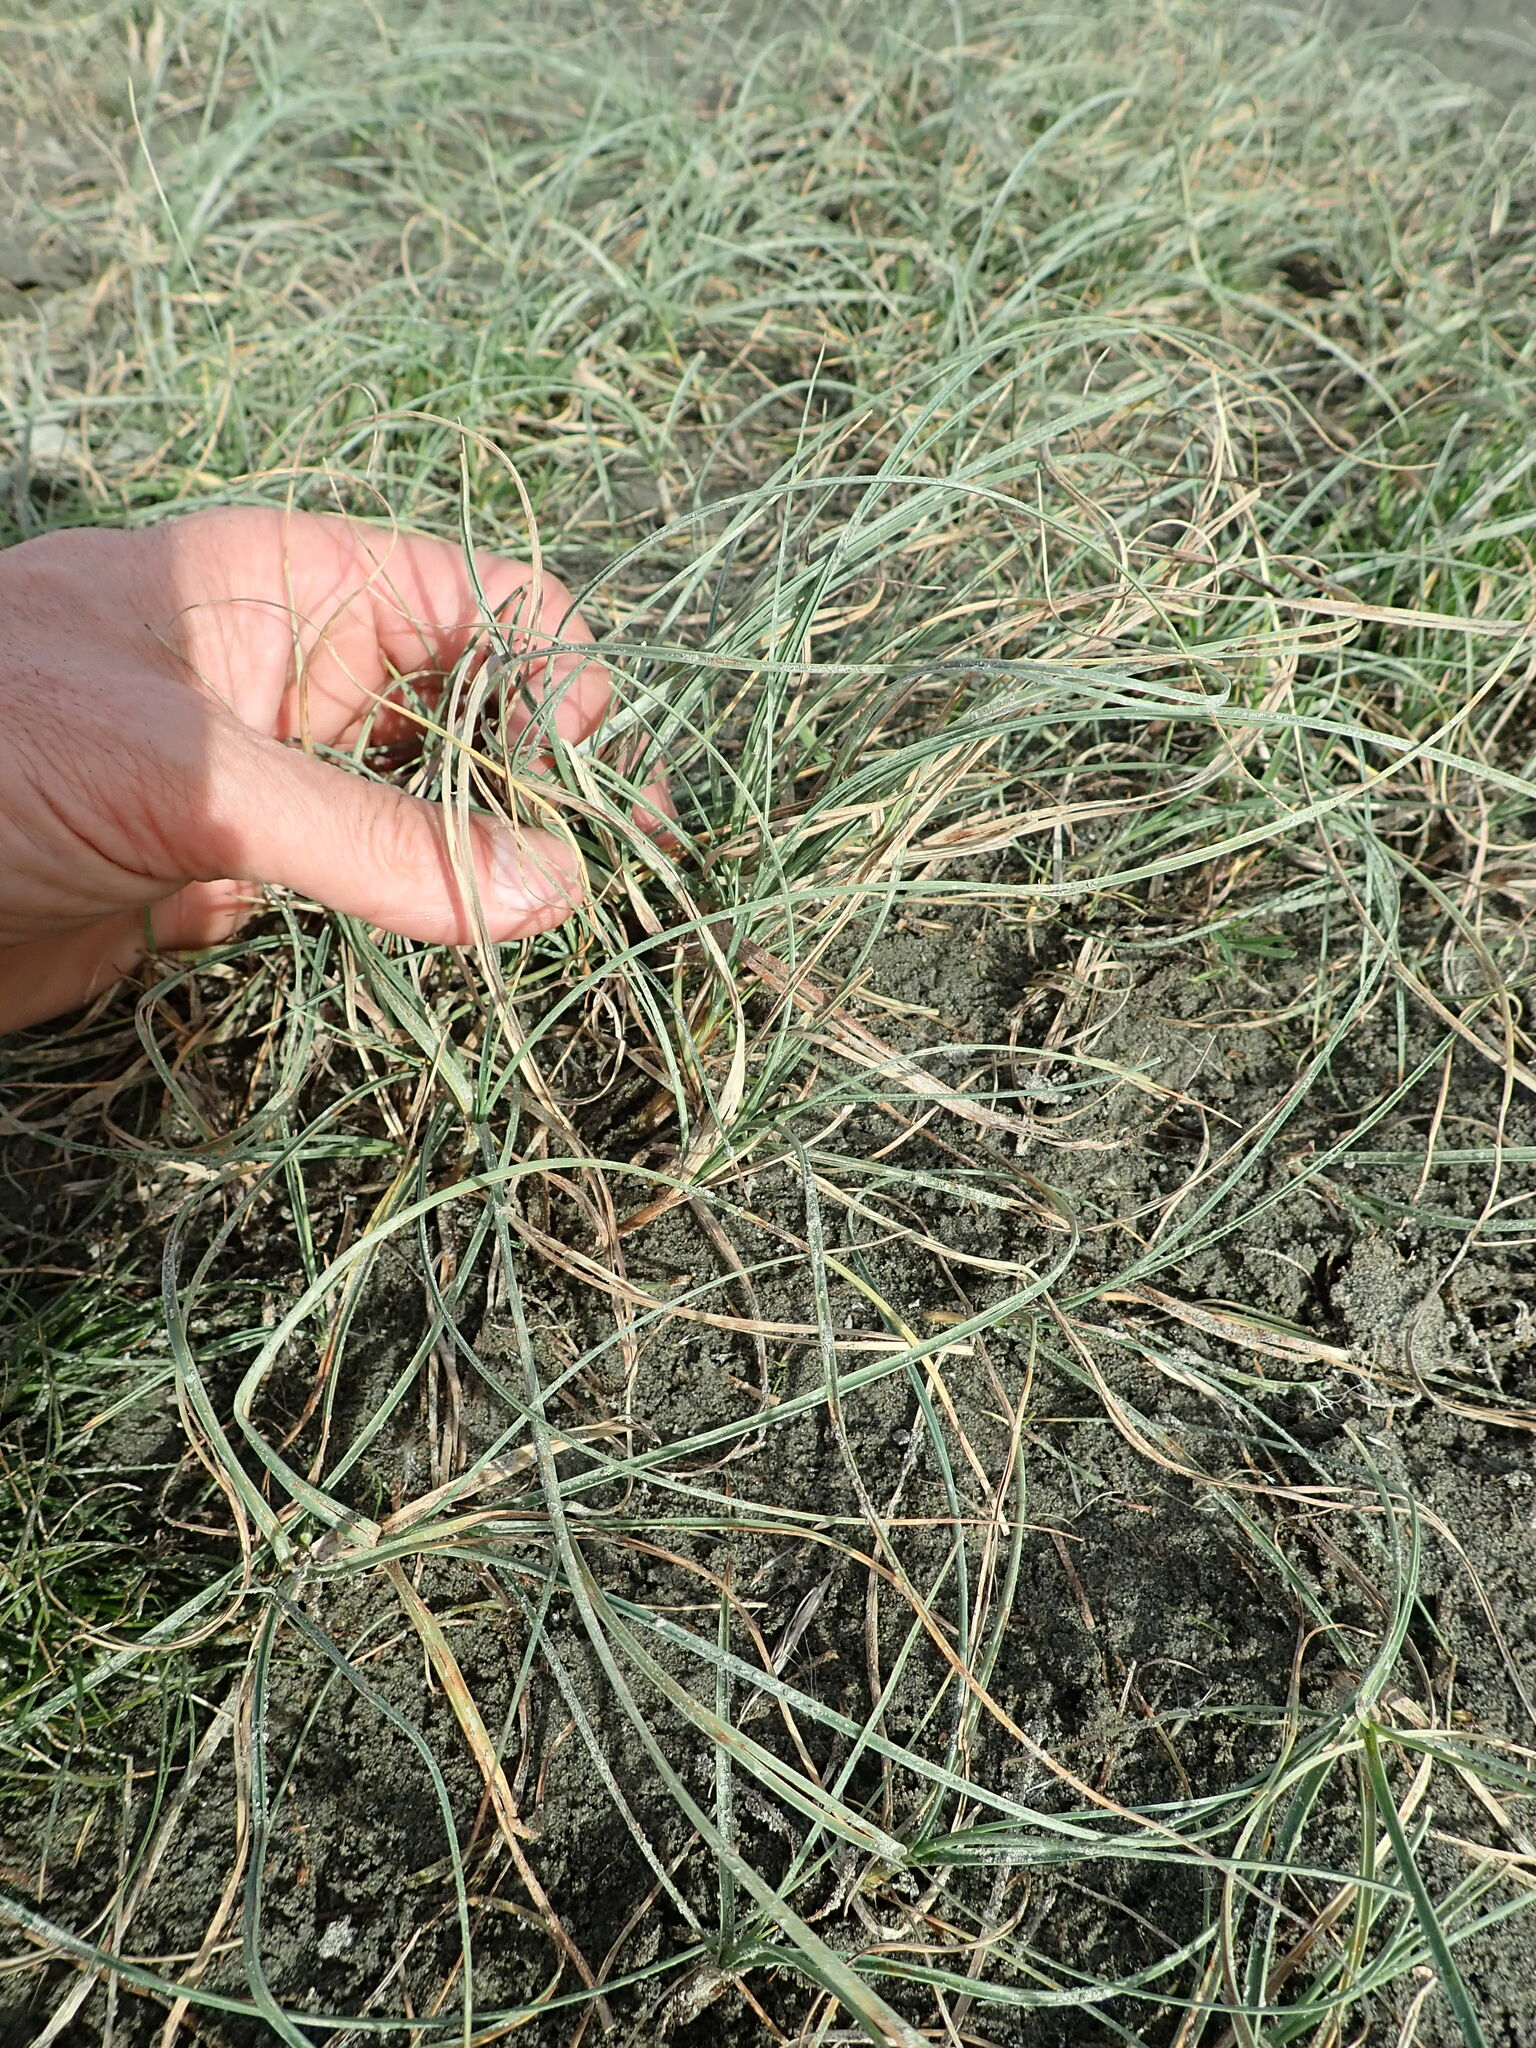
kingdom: Plantae
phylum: Tracheophyta
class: Liliopsida
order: Poales
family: Cyperaceae
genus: Carex
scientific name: Carex pumila
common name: Dwarf sedge
